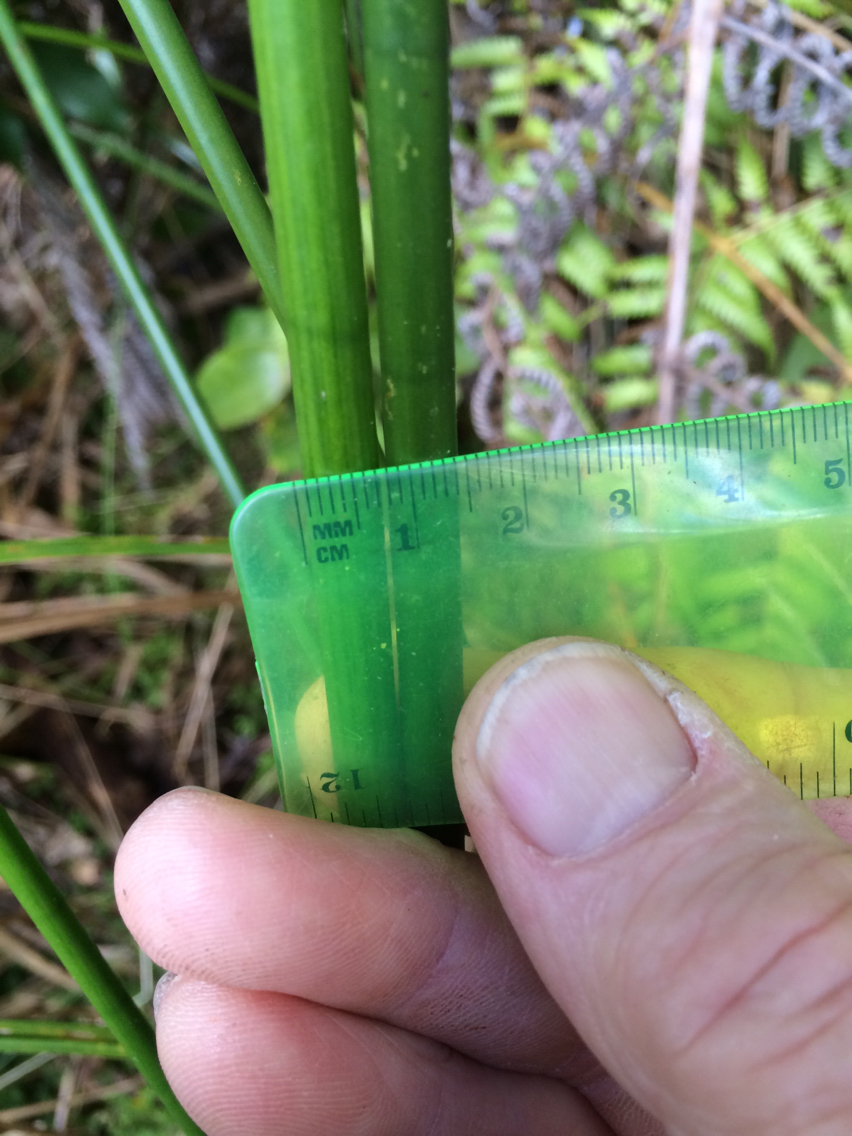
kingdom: Plantae
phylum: Tracheophyta
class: Liliopsida
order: Poales
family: Cyperaceae
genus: Machaerina
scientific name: Machaerina articulata
